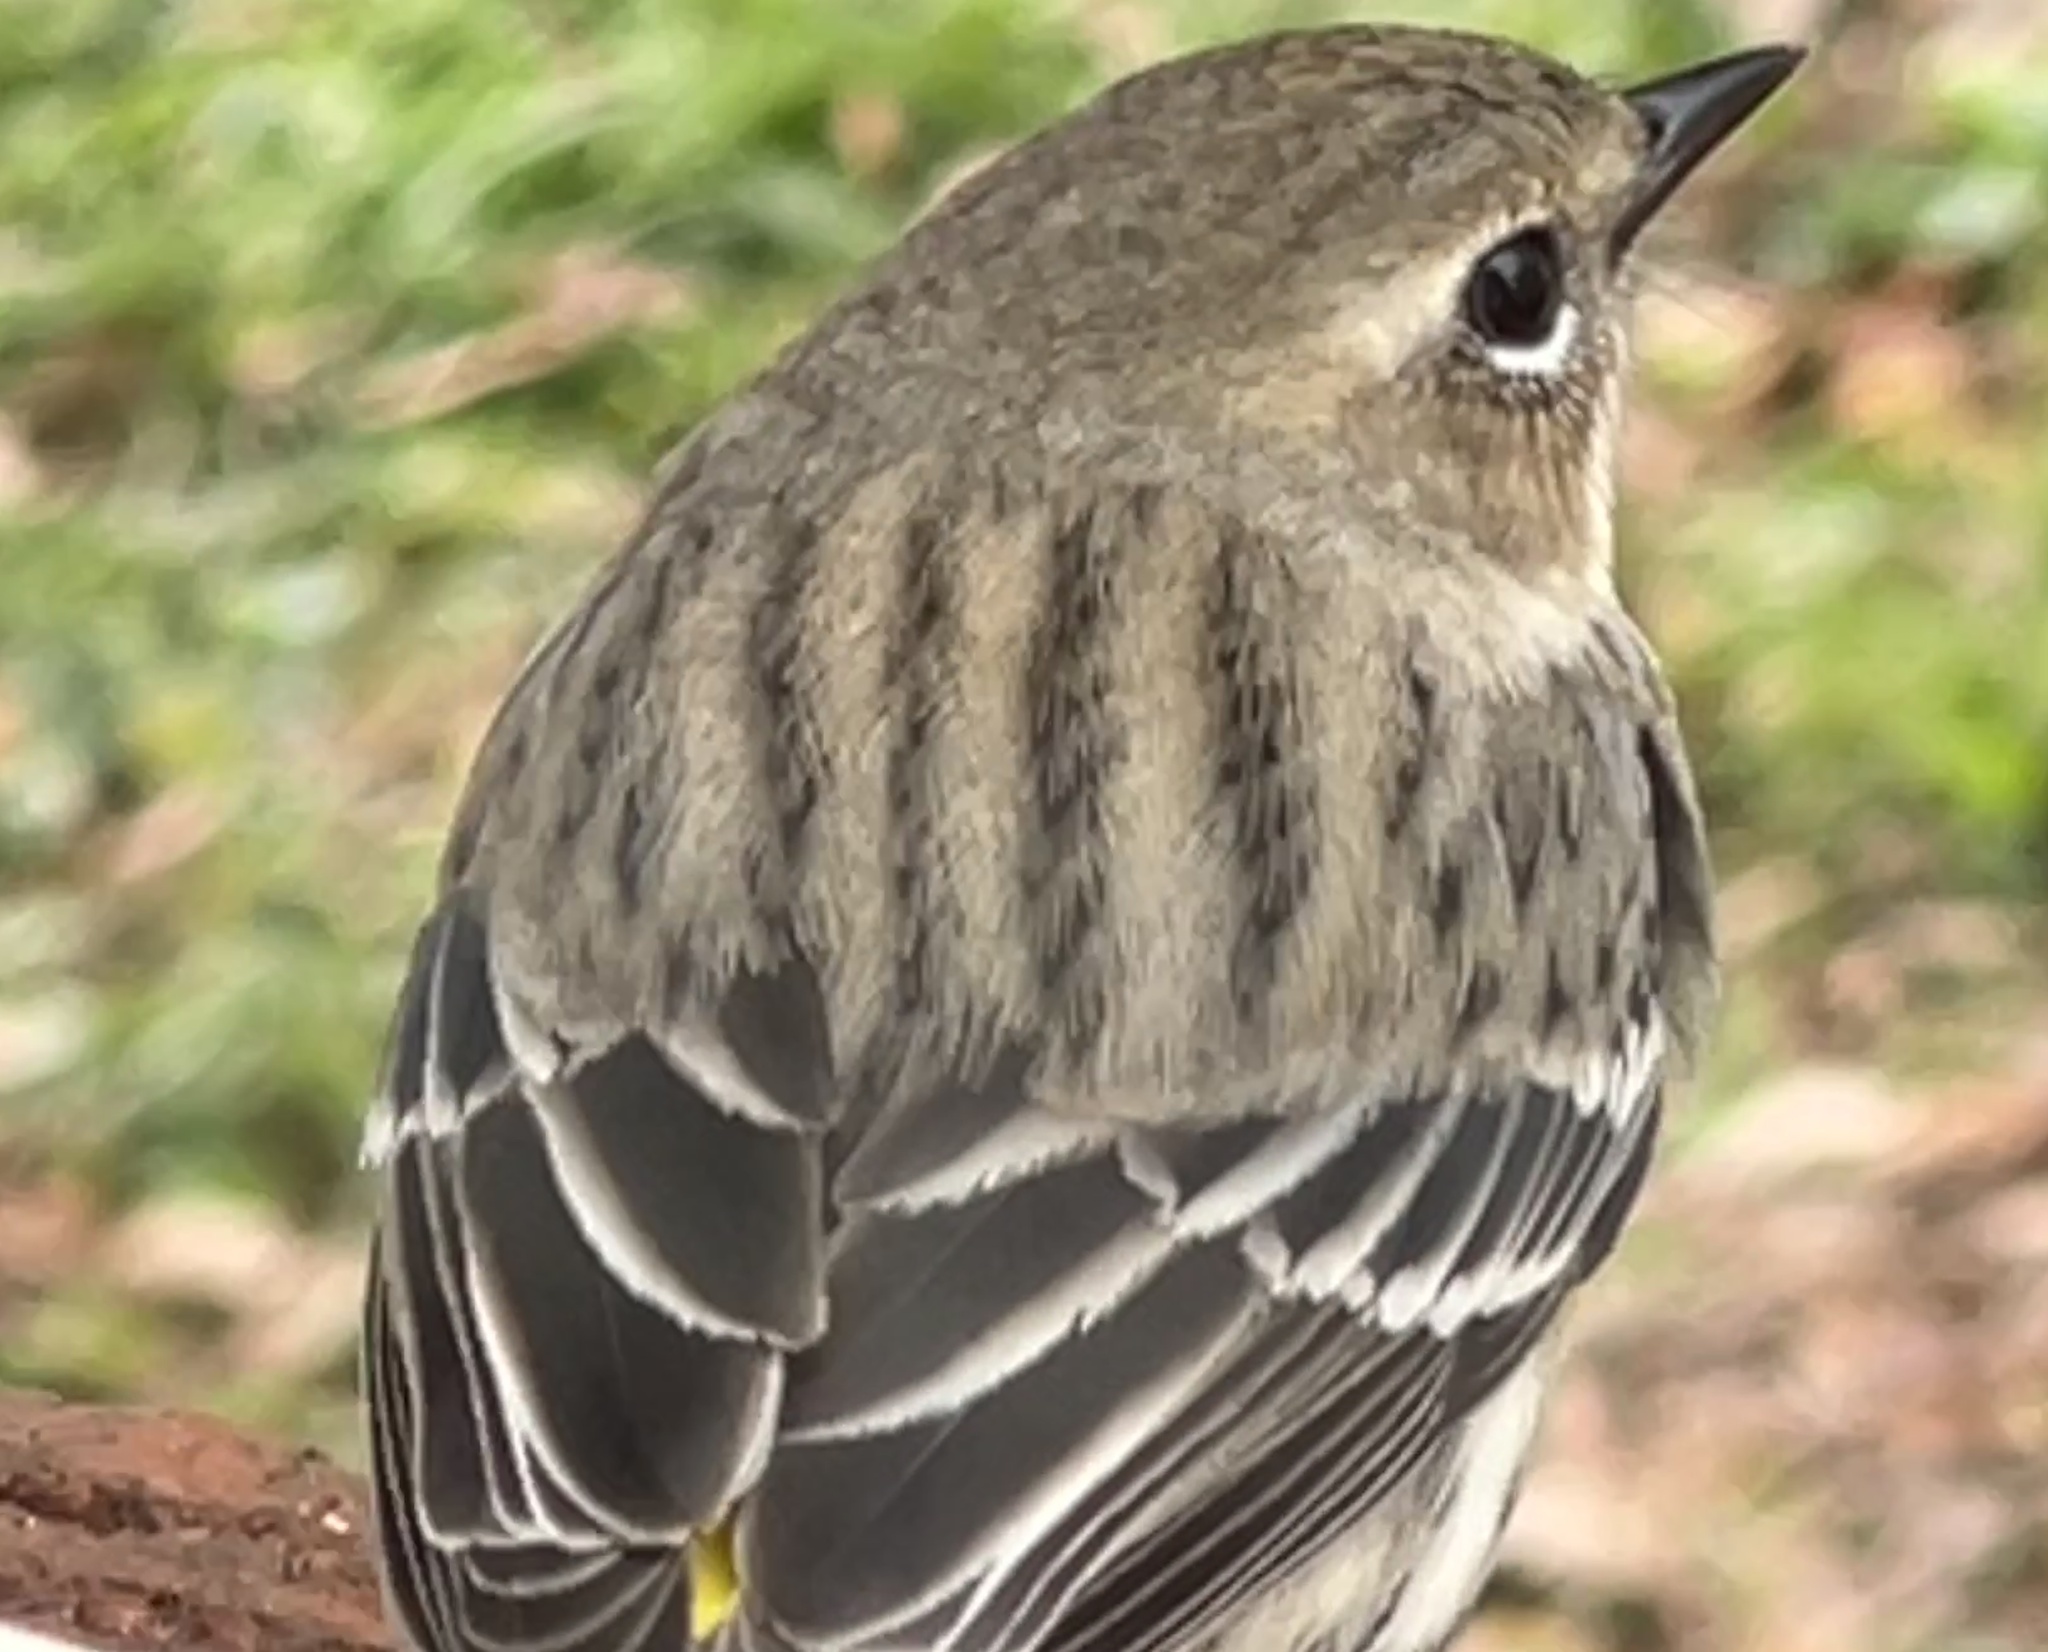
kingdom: Animalia
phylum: Chordata
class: Aves
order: Passeriformes
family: Parulidae
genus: Setophaga
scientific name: Setophaga coronata
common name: Myrtle warbler
